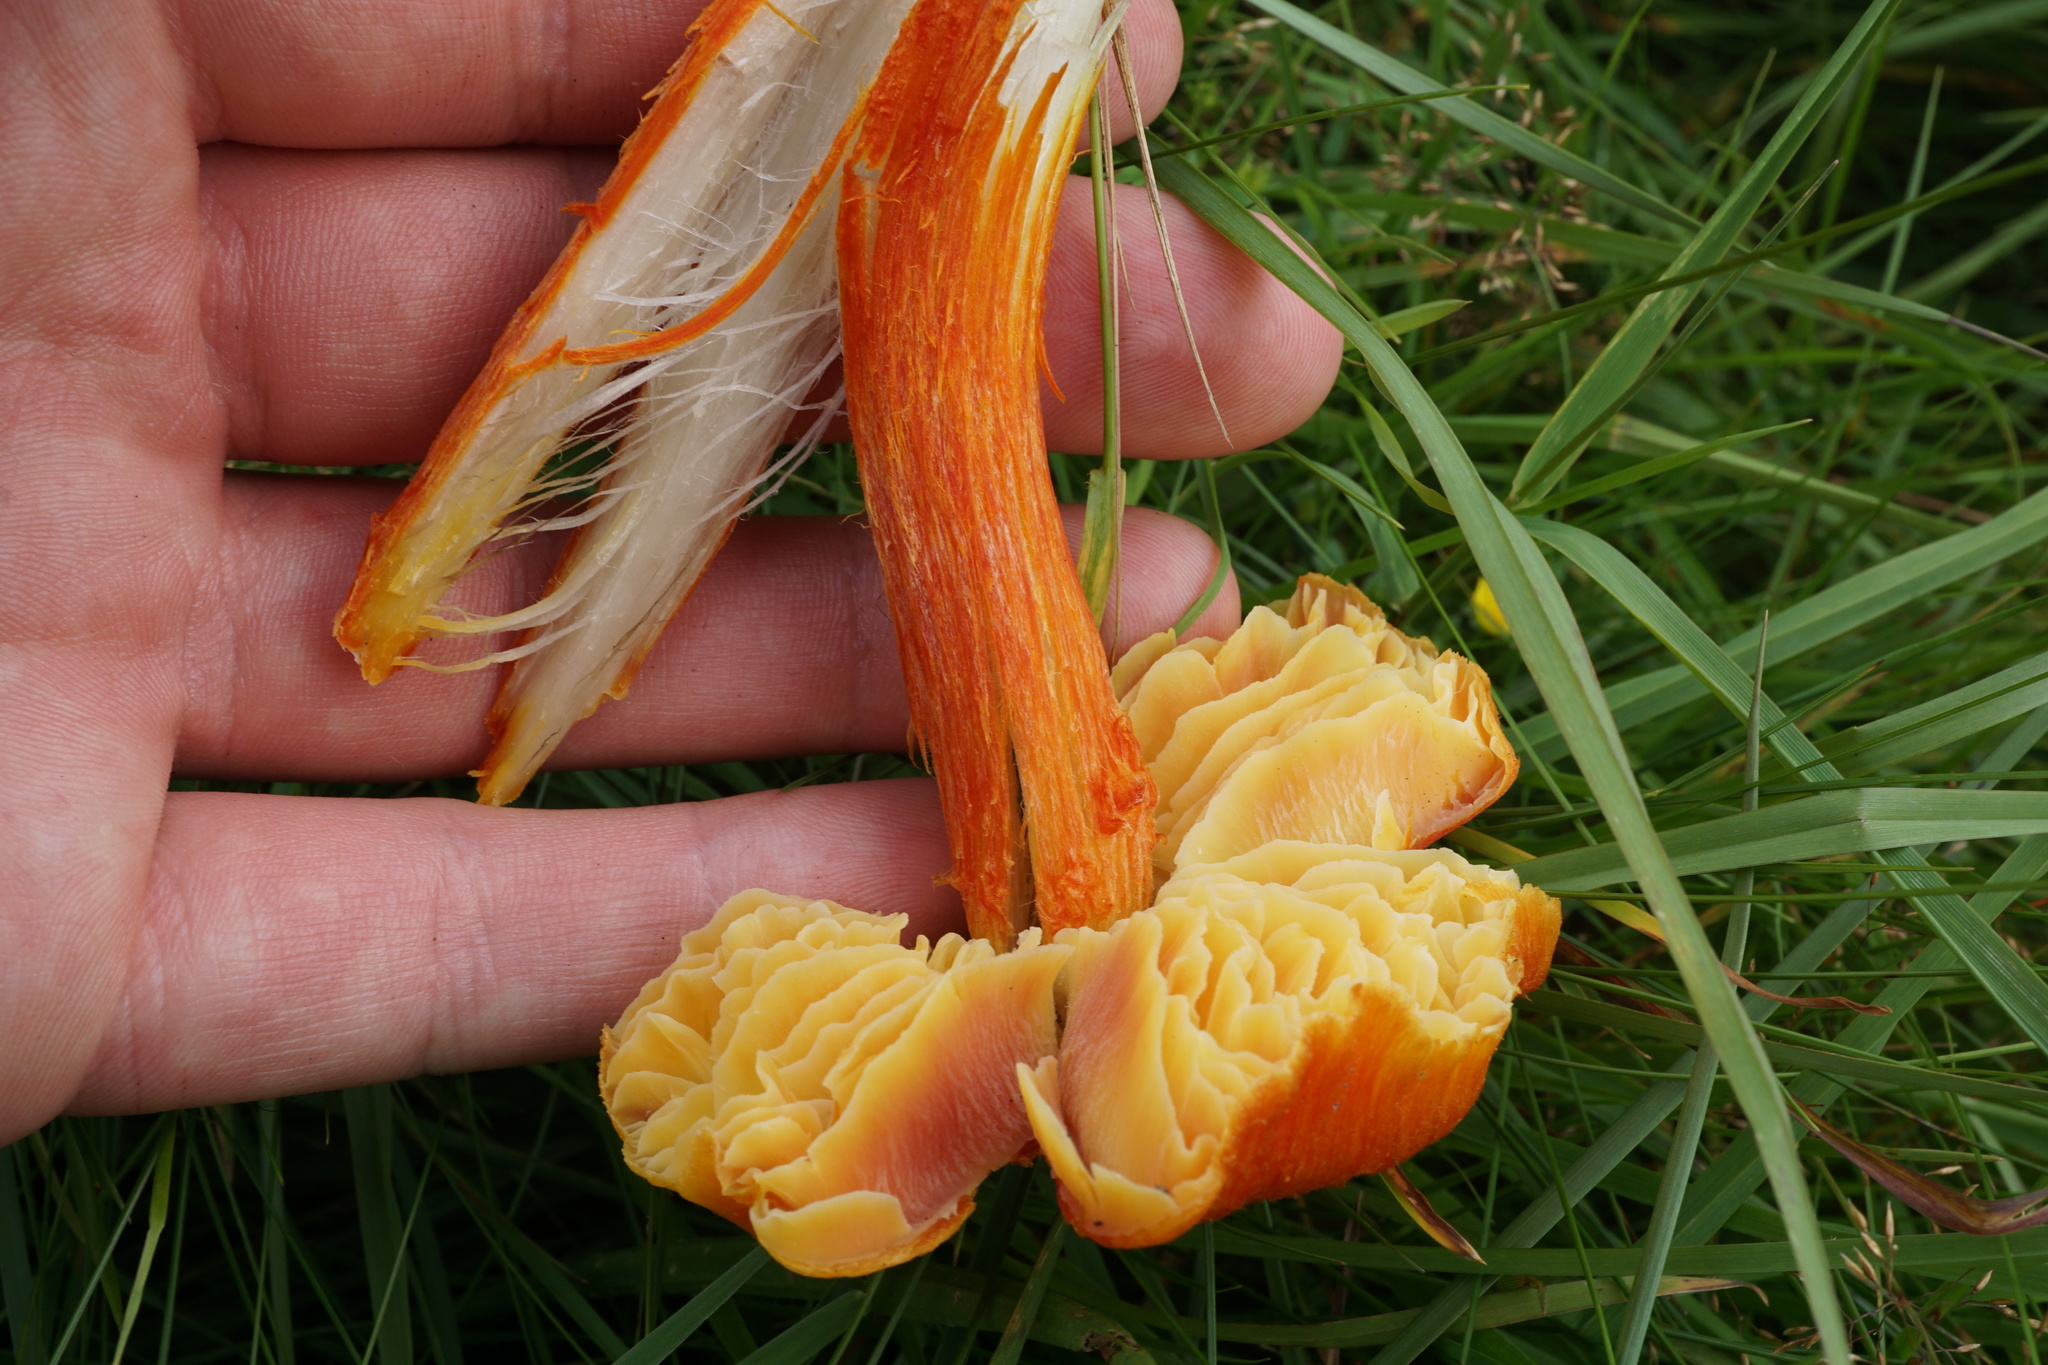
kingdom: Fungi
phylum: Basidiomycota
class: Agaricomycetes
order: Agaricales
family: Hygrophoraceae
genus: Hygrocybe
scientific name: Hygrocybe intermedia
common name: Fibrous waxcap
